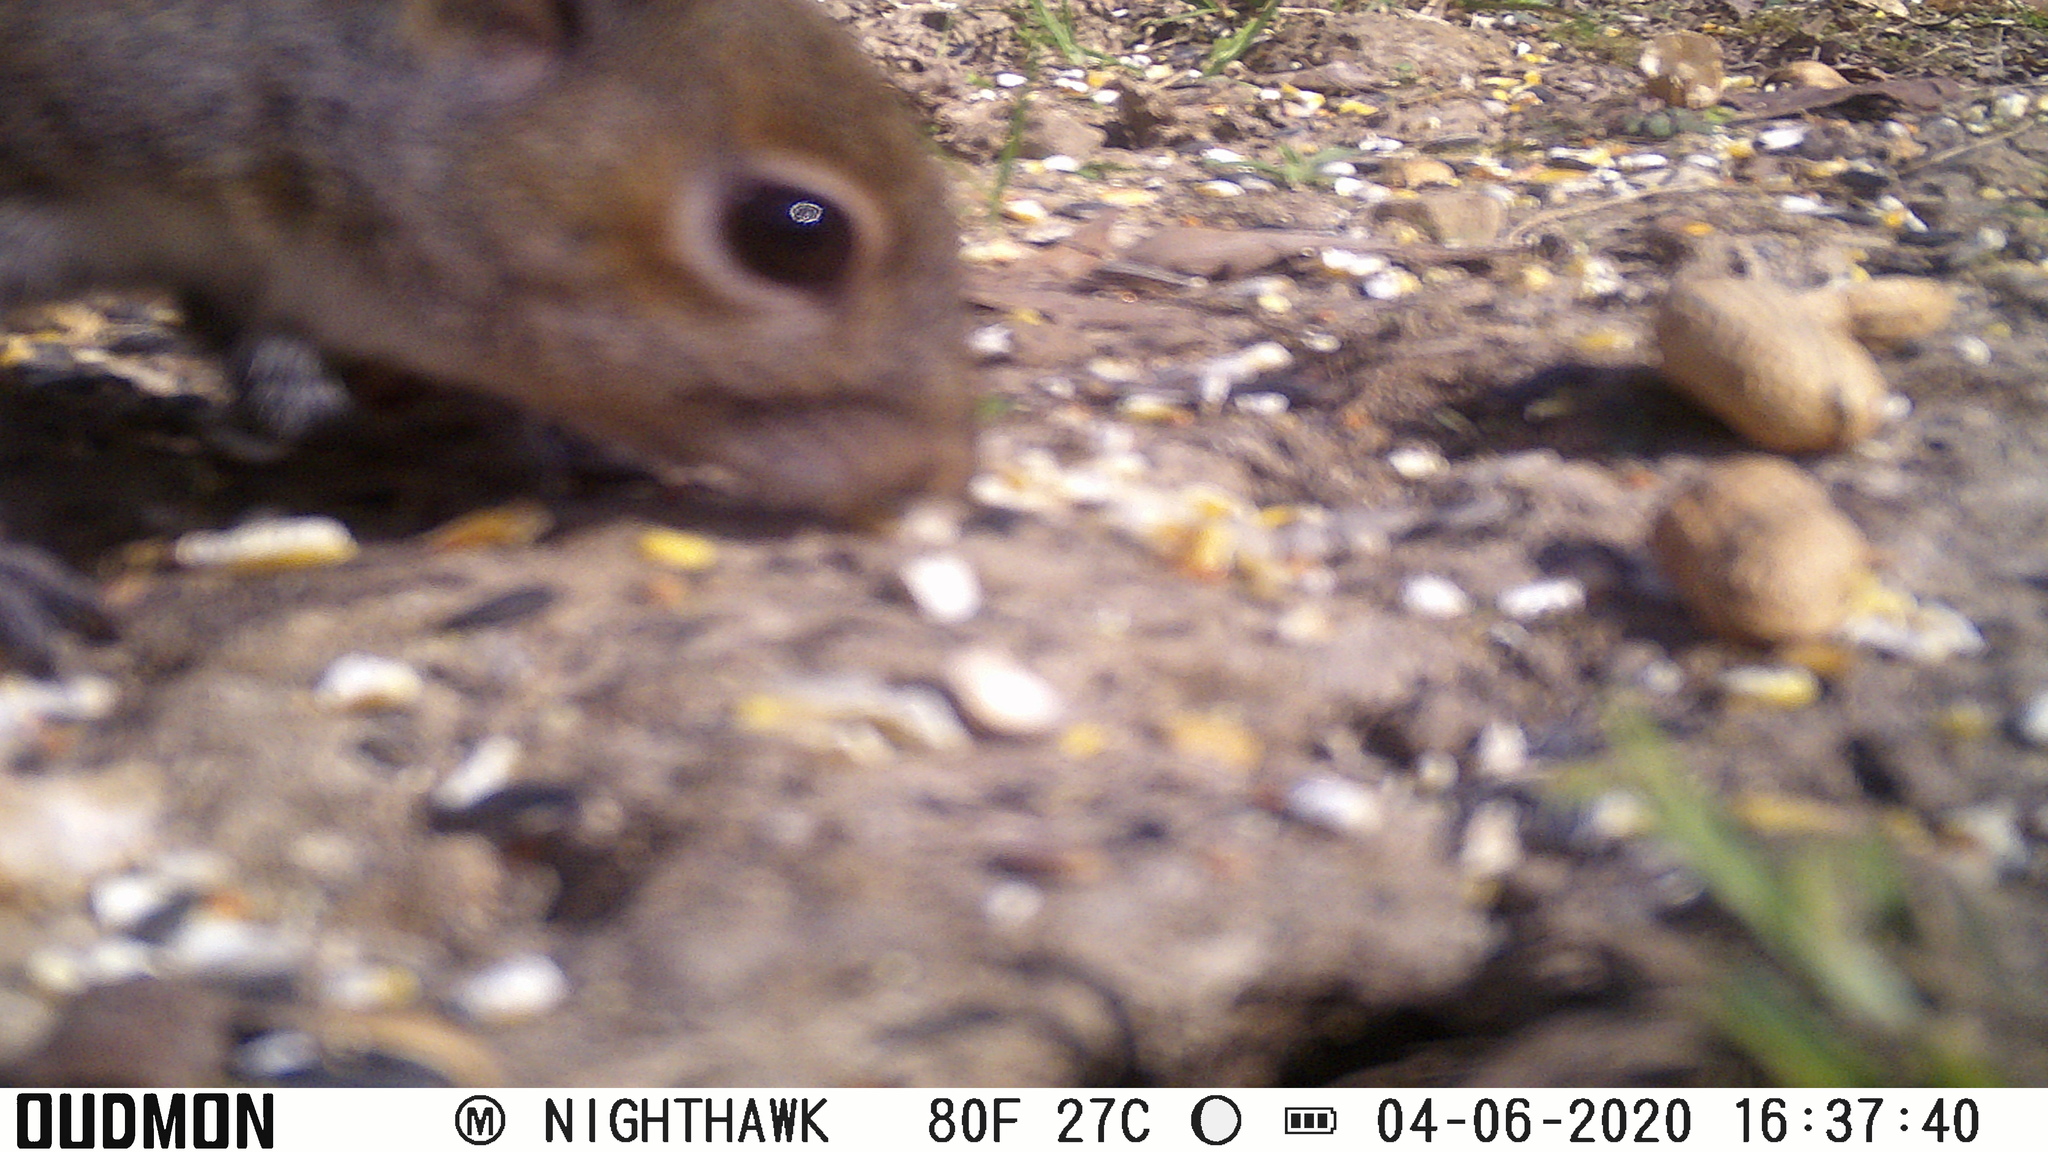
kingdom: Animalia
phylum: Chordata
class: Mammalia
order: Rodentia
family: Sciuridae
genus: Sciurus
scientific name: Sciurus carolinensis
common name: Eastern gray squirrel
